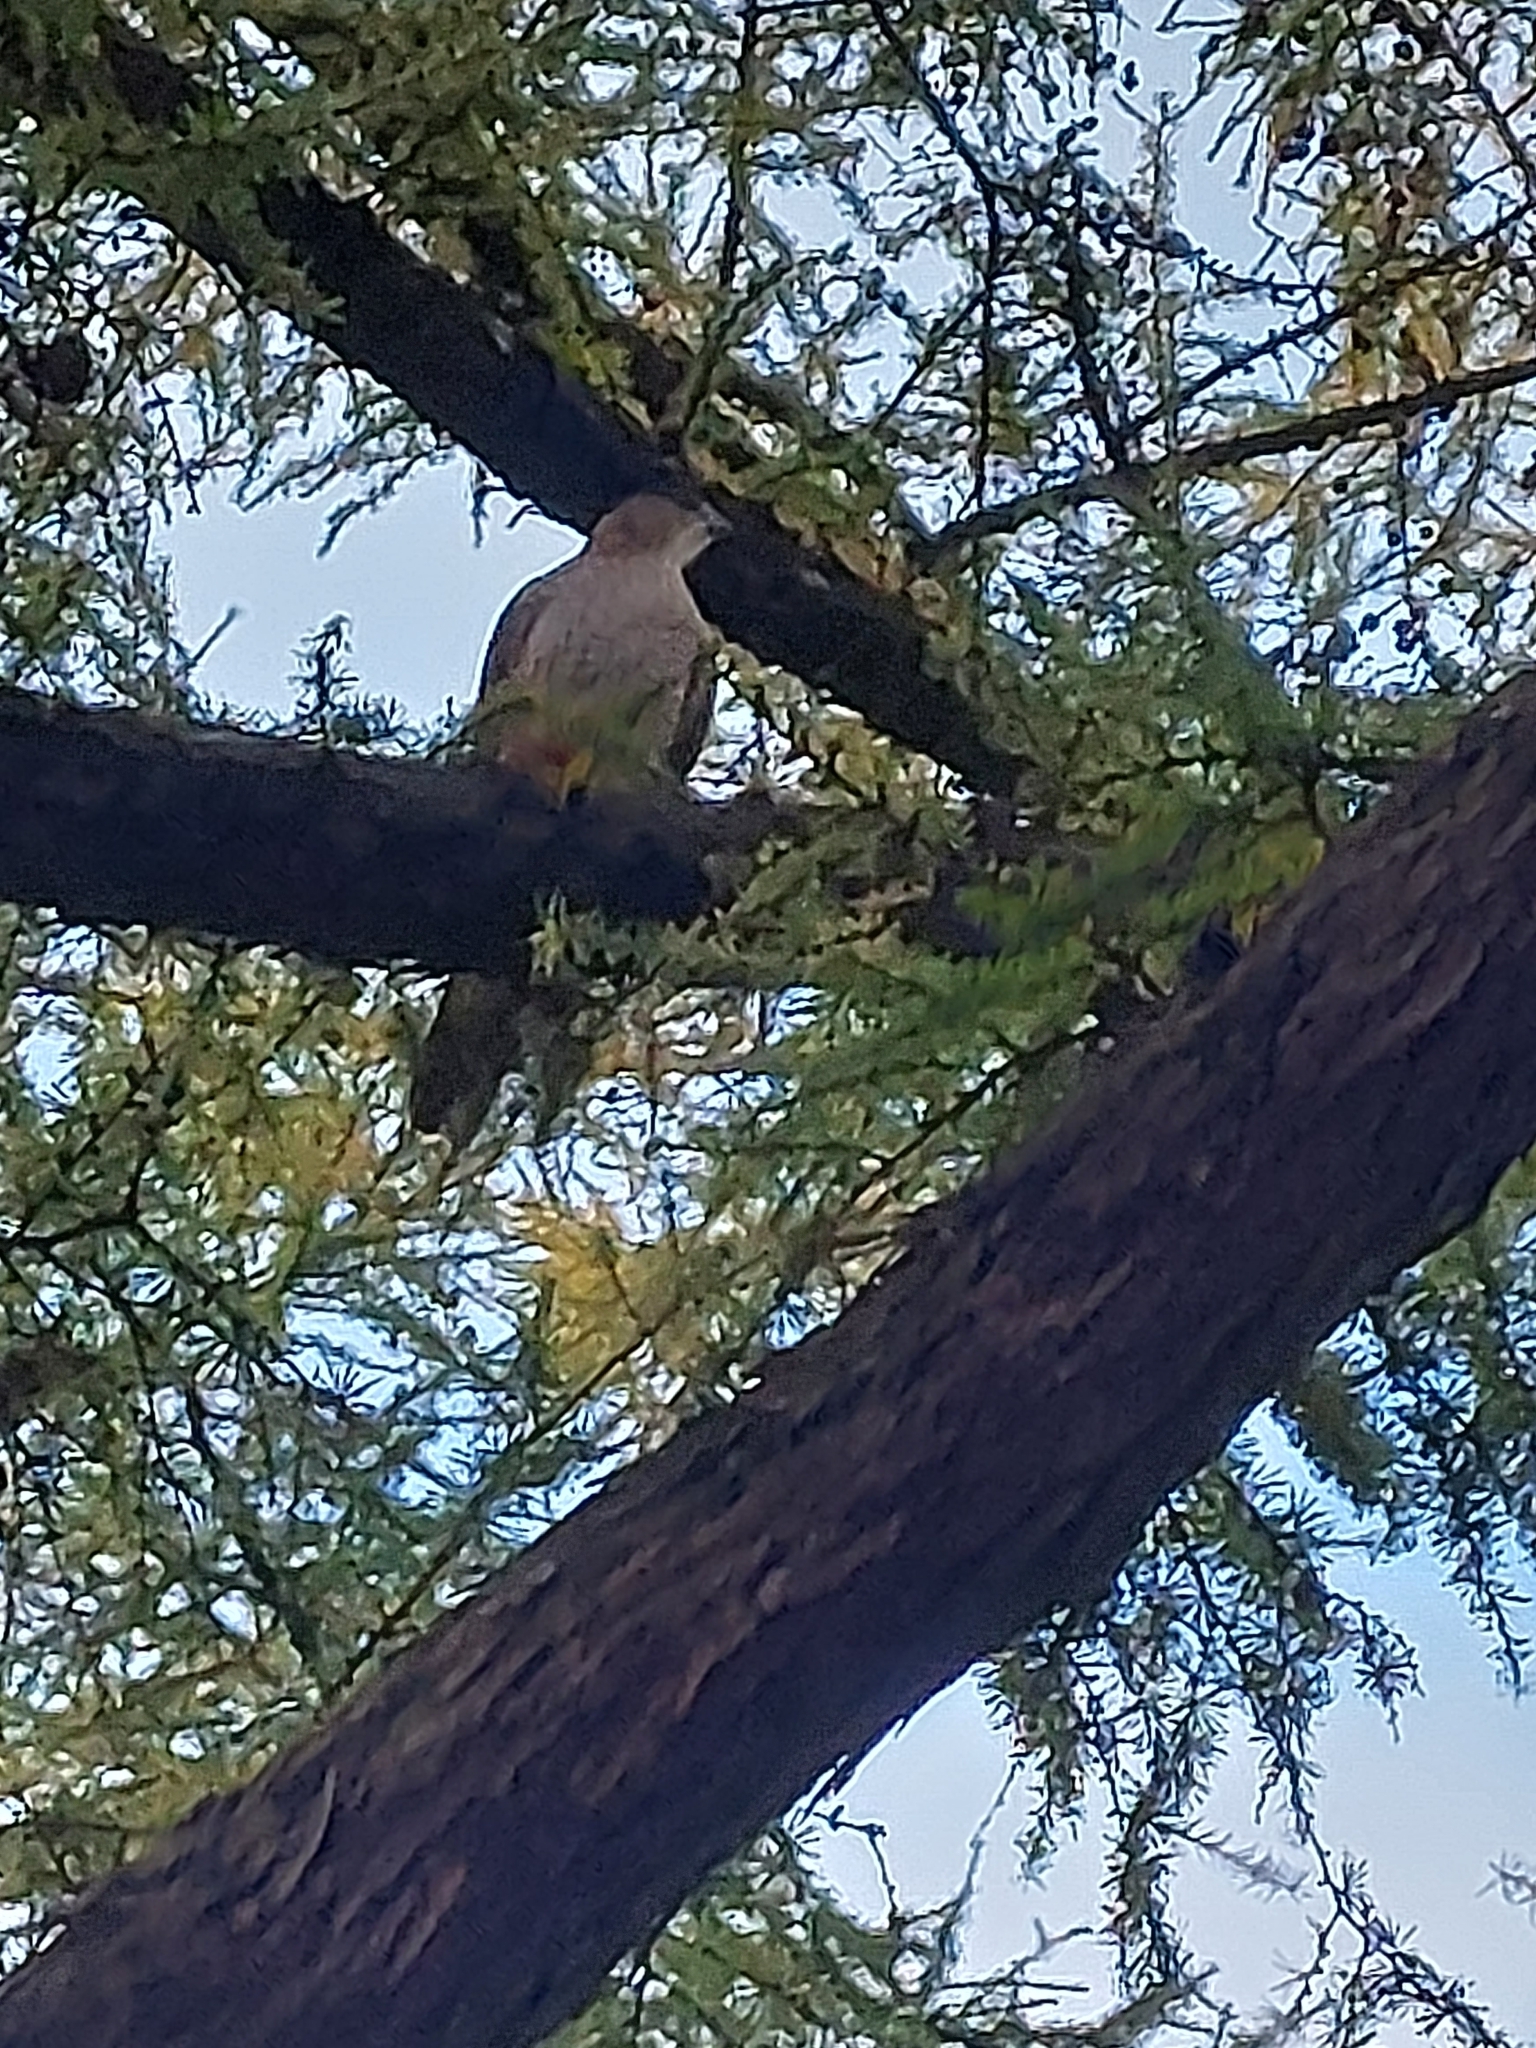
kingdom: Animalia
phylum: Chordata
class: Aves
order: Accipitriformes
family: Accipitridae
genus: Accipiter
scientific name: Accipiter cooperii
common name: Cooper's hawk
